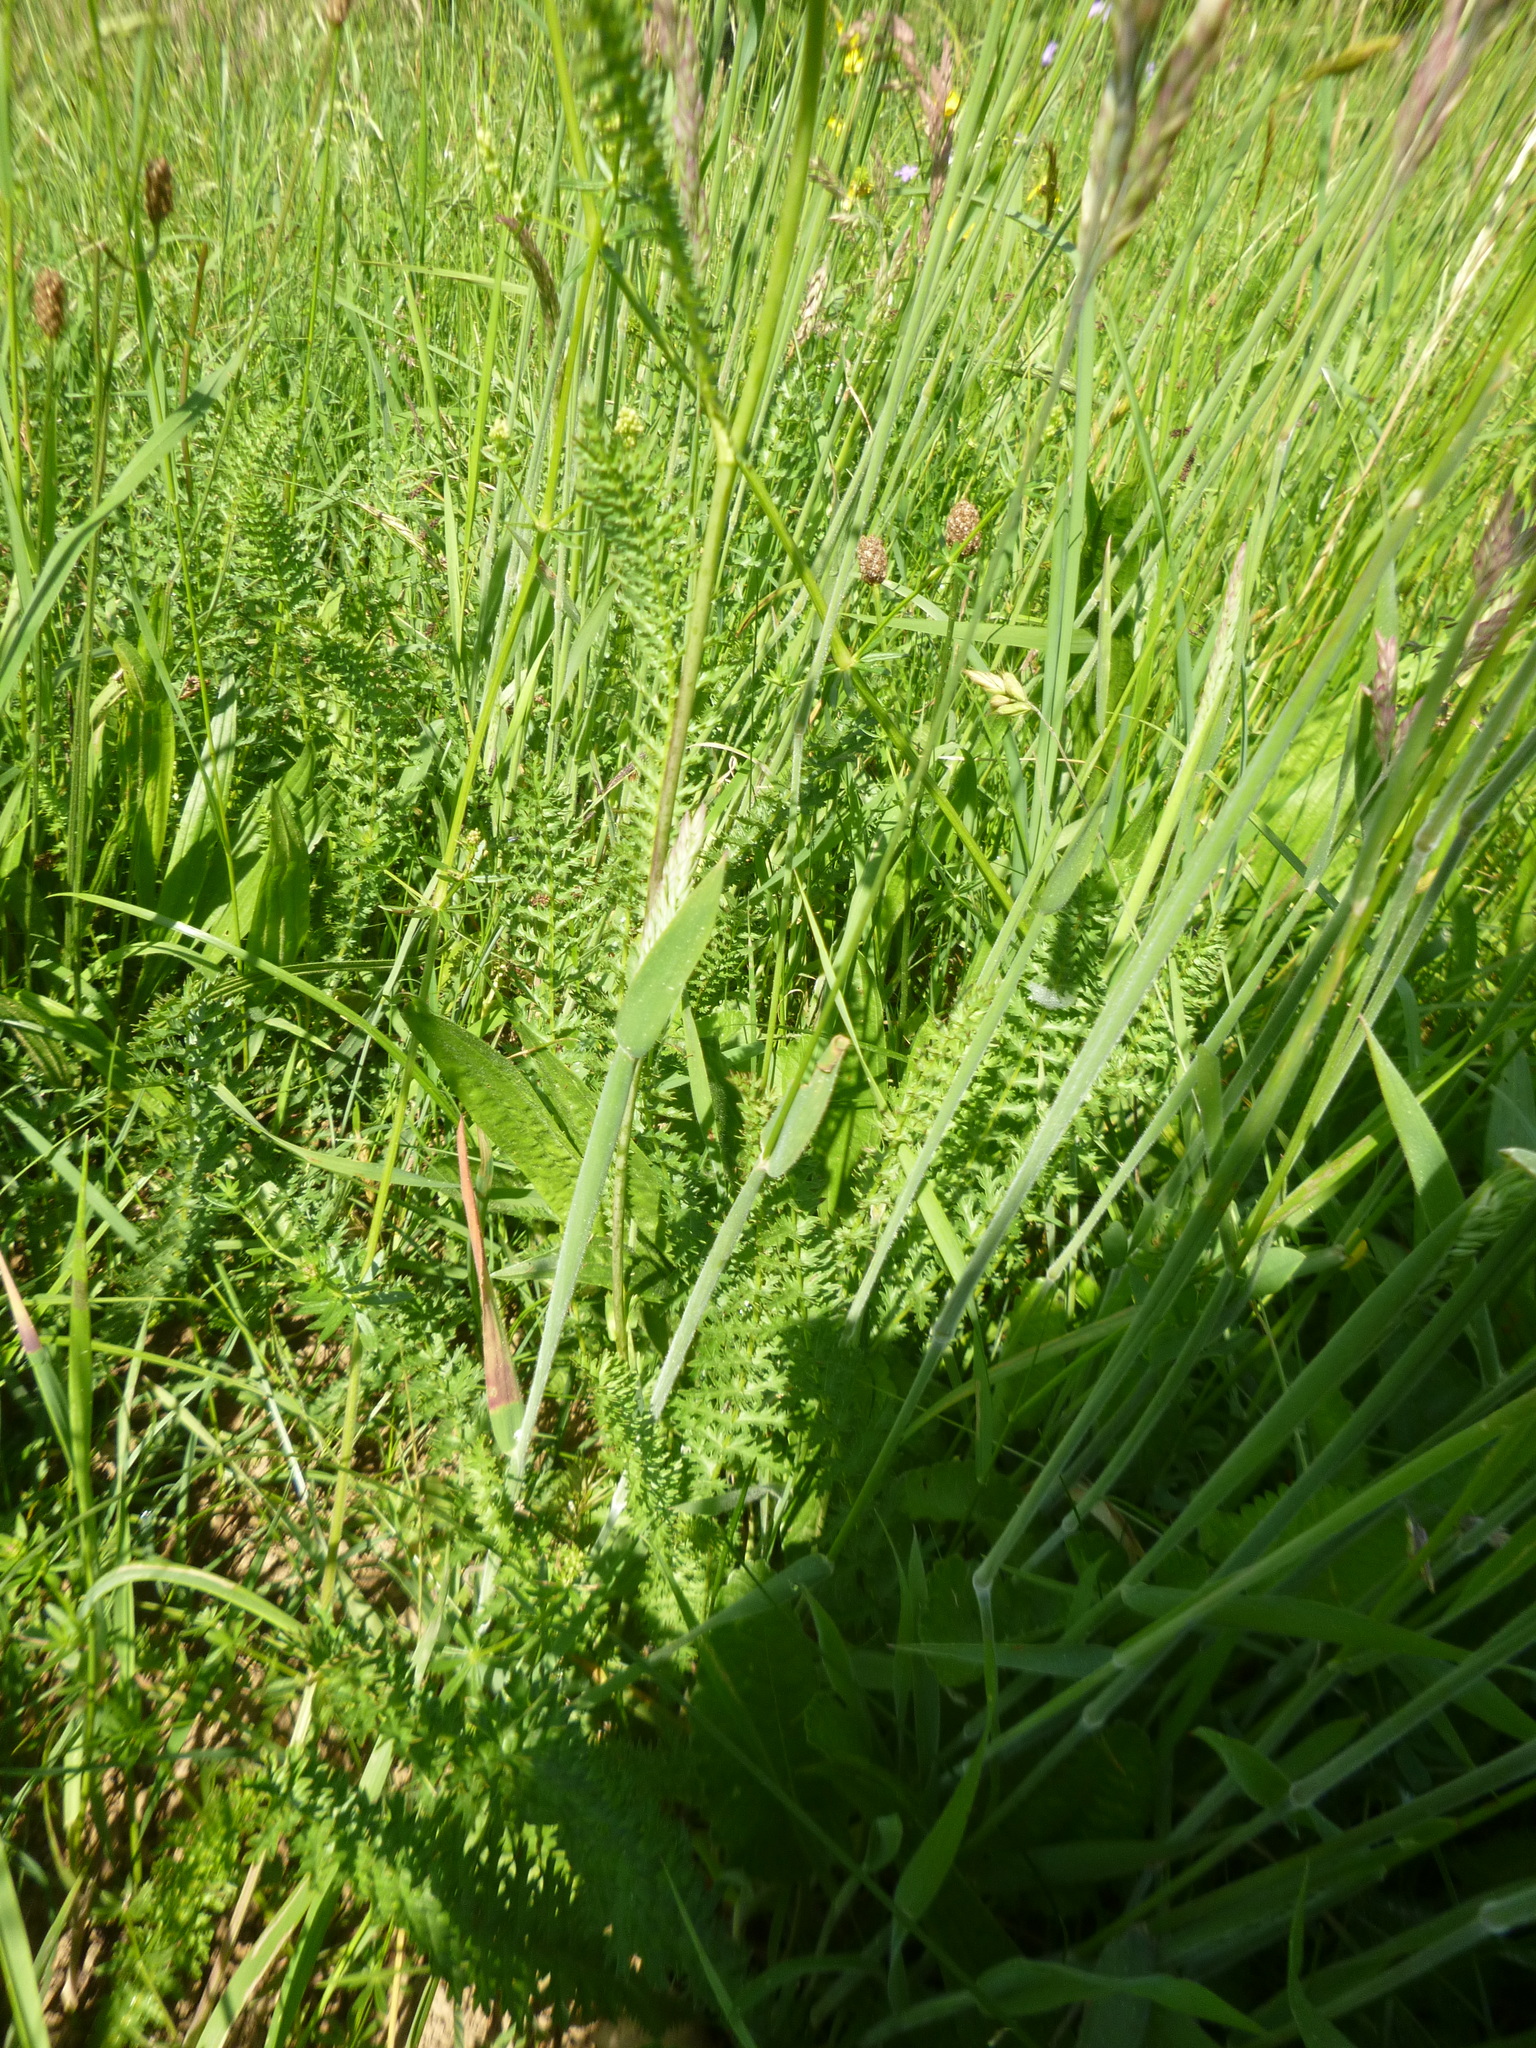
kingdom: Plantae
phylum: Tracheophyta
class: Magnoliopsida
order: Rosales
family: Rosaceae
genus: Filipendula
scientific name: Filipendula vulgaris
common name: Dropwort
